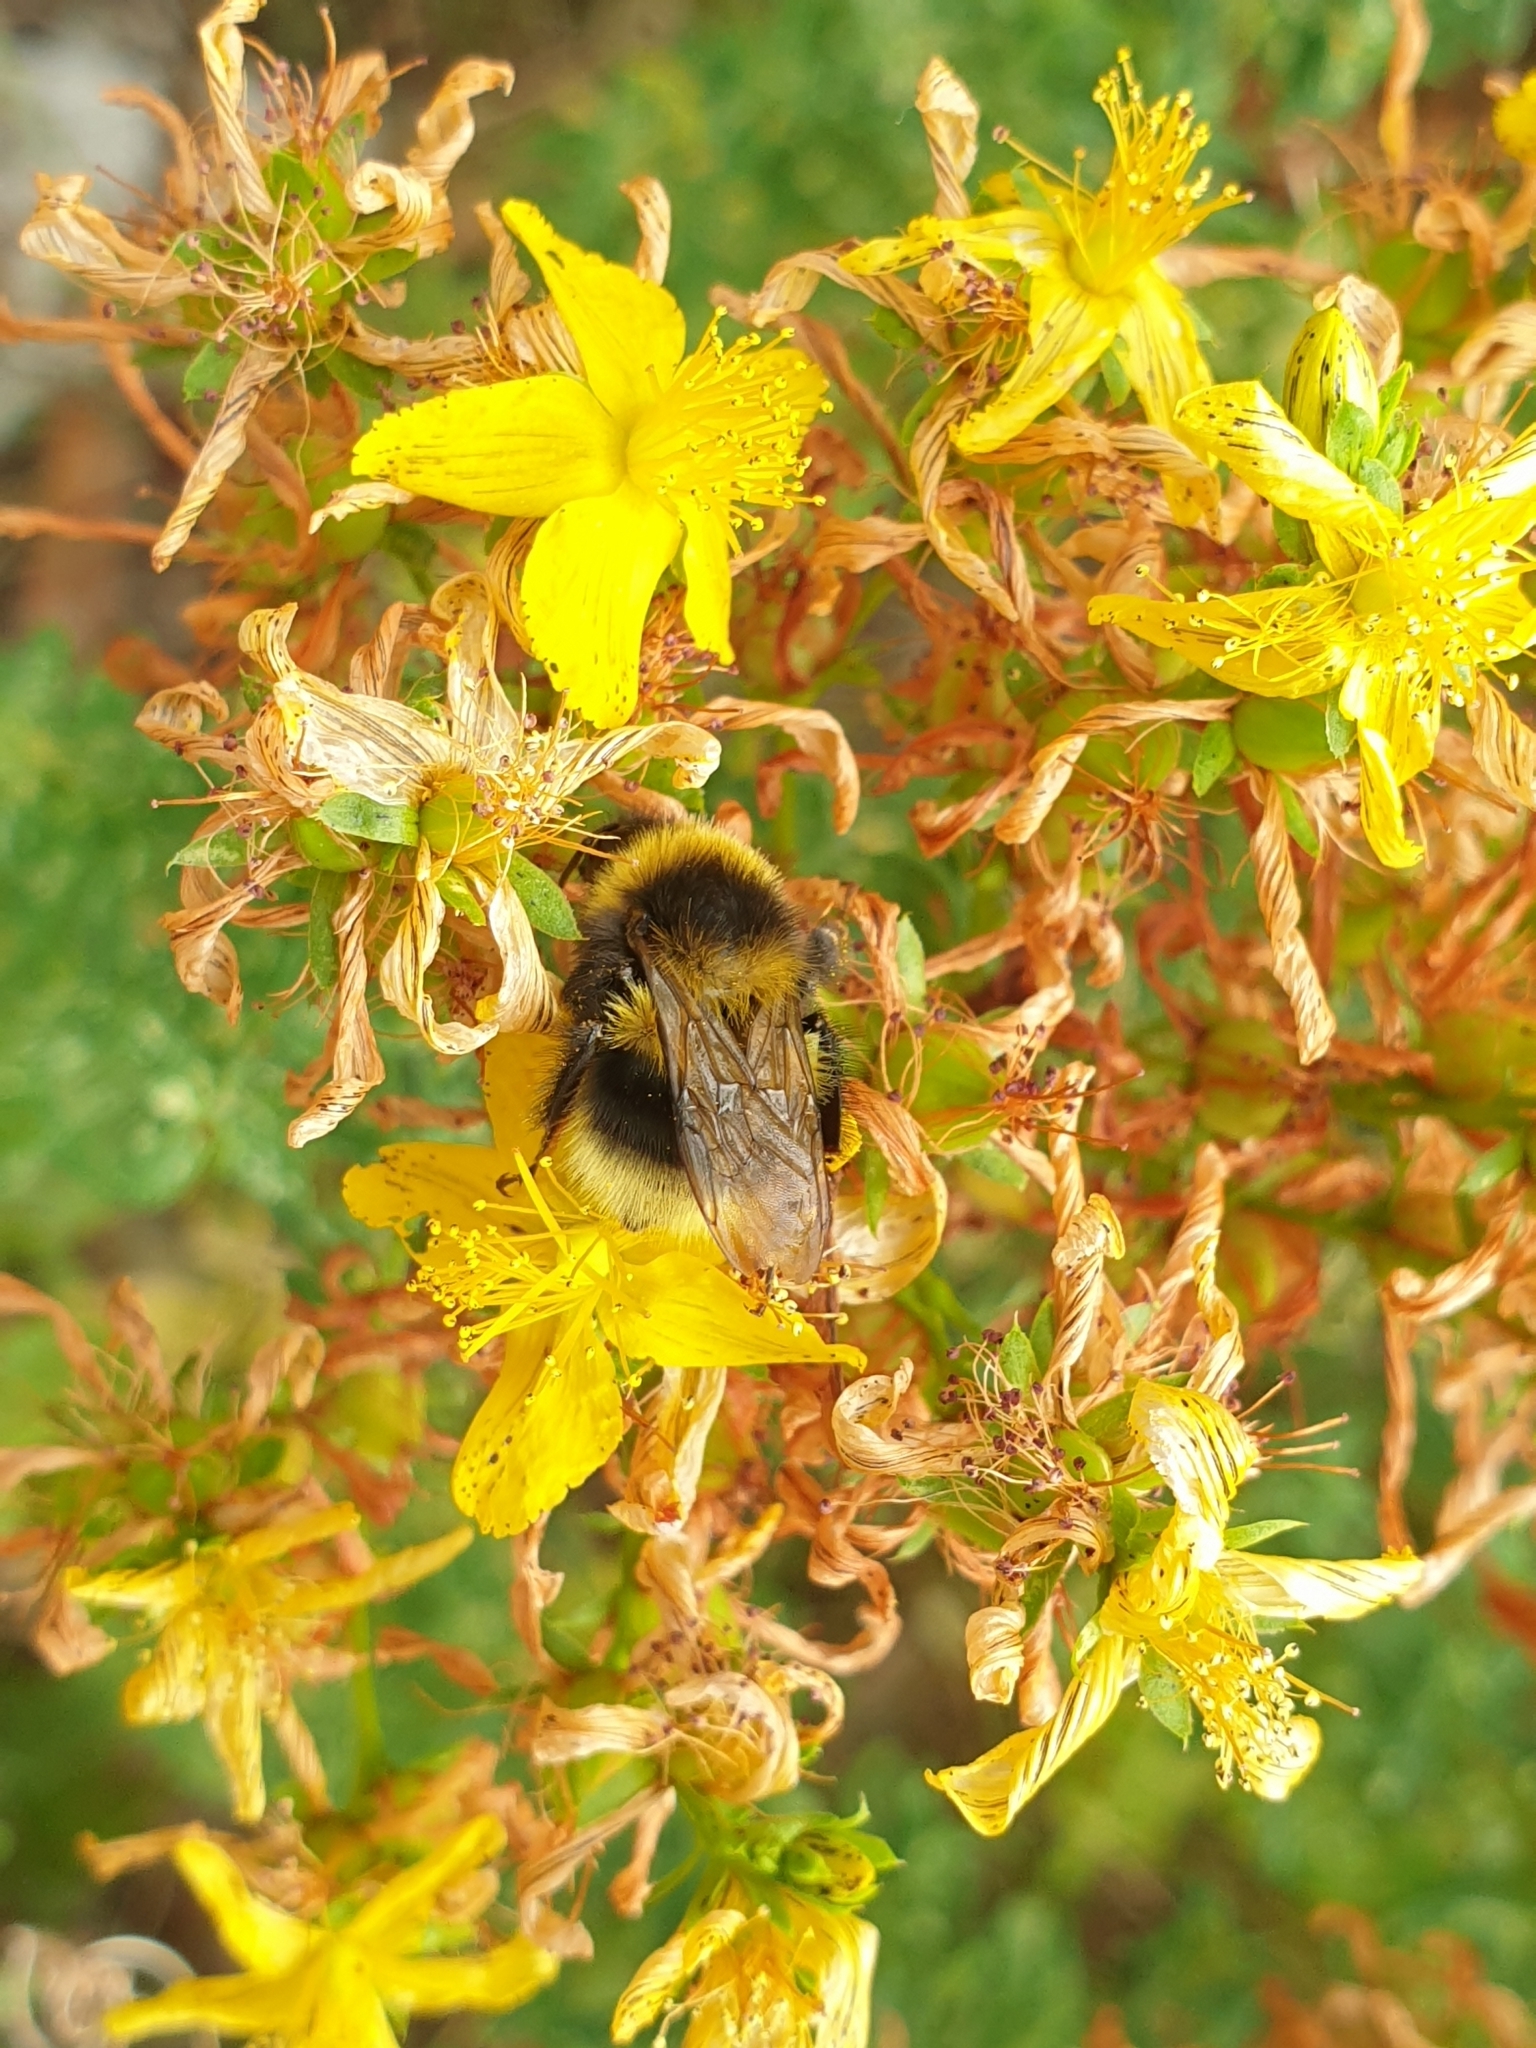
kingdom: Animalia
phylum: Arthropoda
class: Insecta
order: Hymenoptera
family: Apidae
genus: Bombus
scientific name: Bombus
